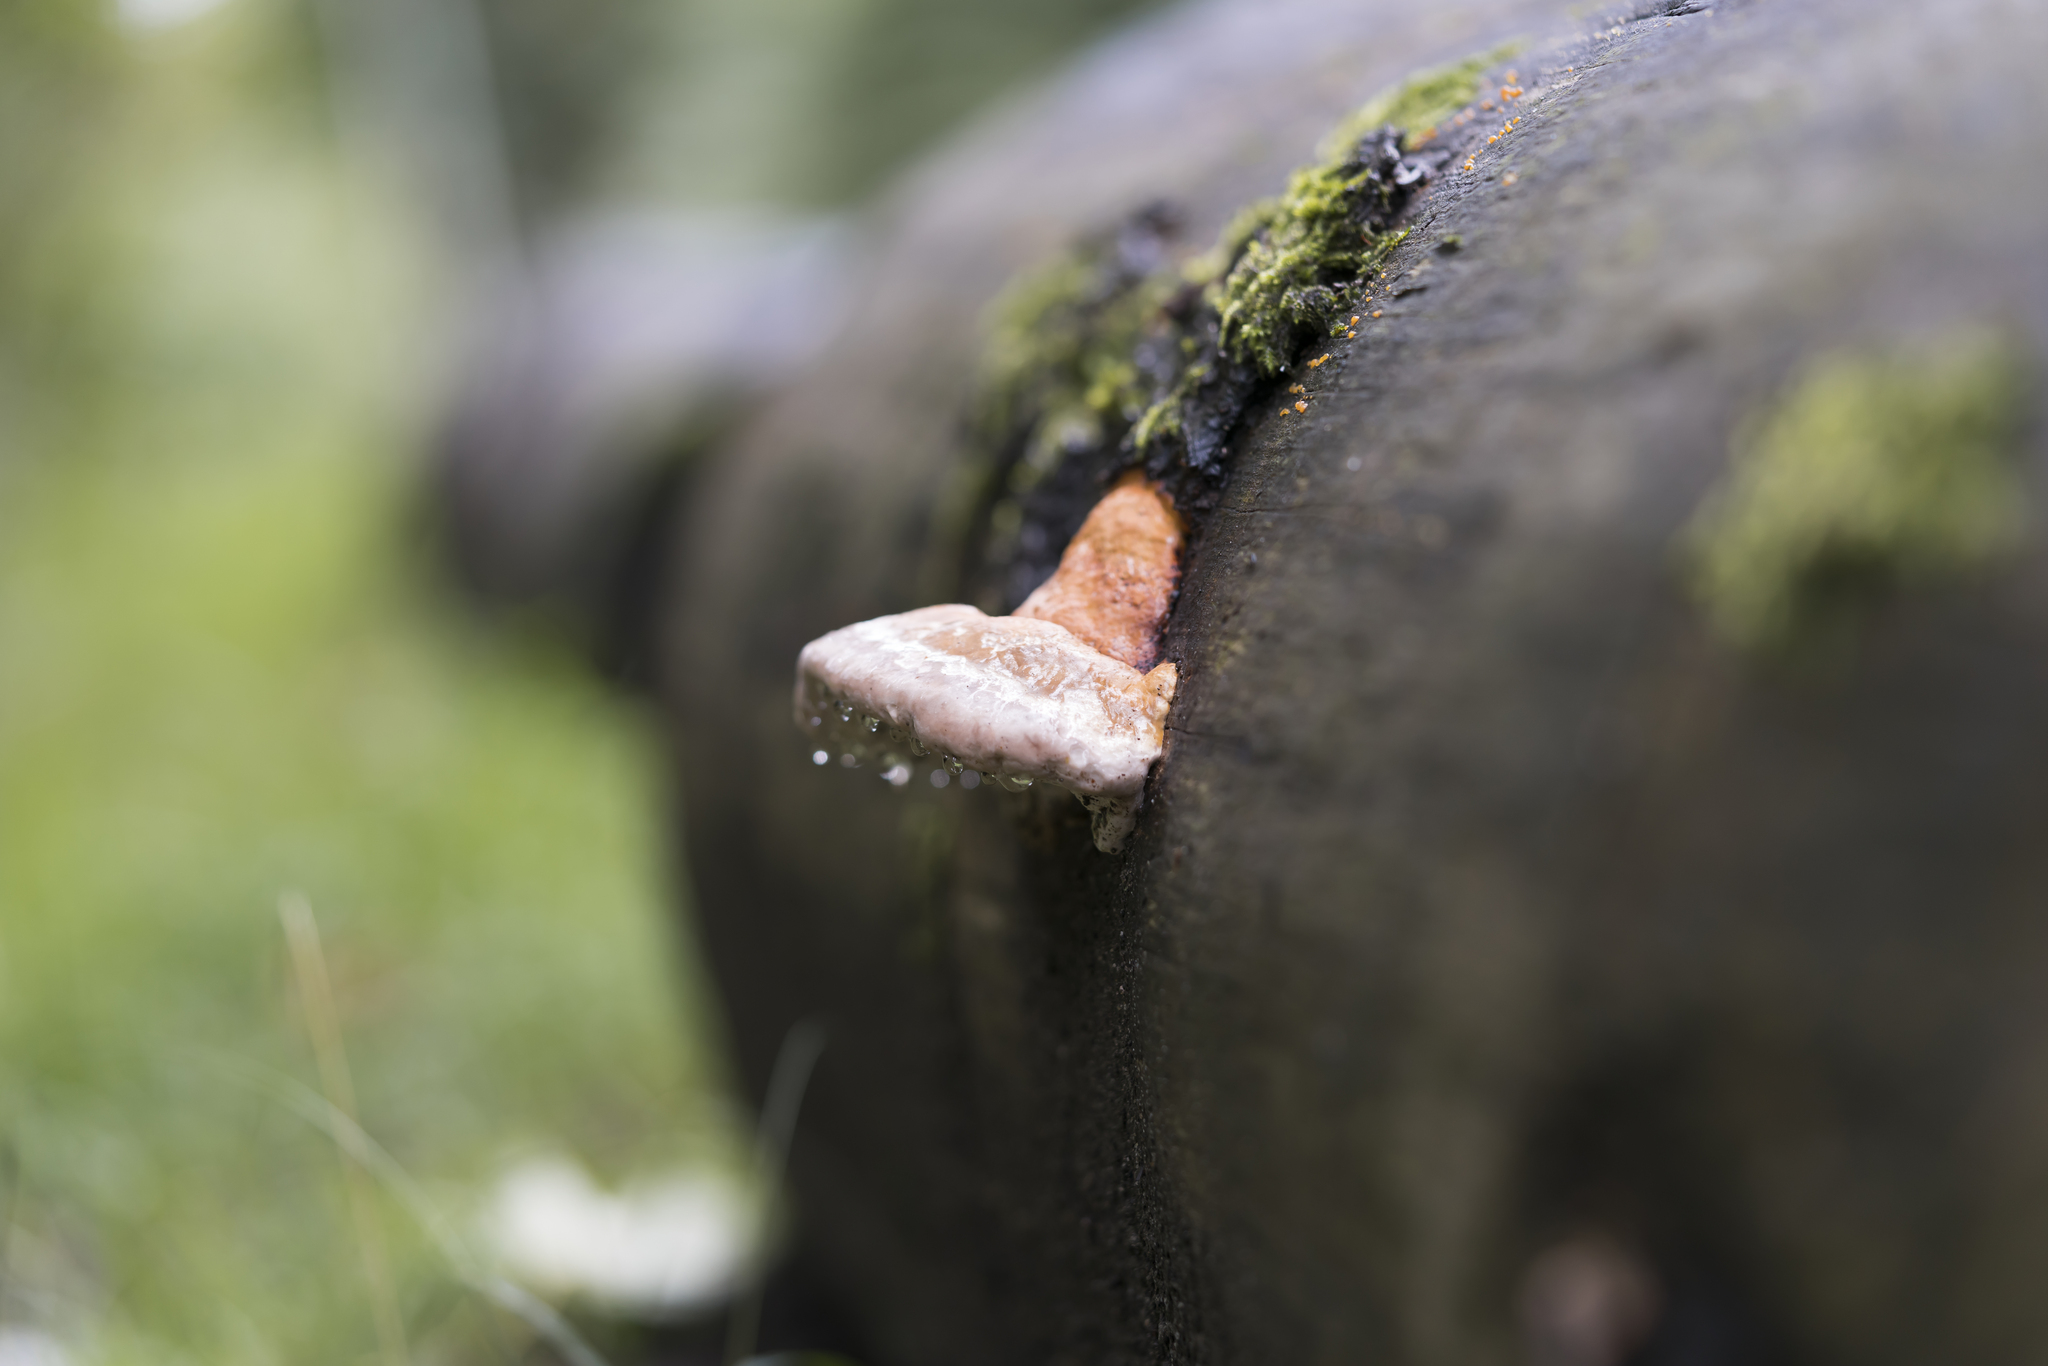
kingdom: Fungi
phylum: Basidiomycota
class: Agaricomycetes
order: Polyporales
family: Fomitopsidaceae
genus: Fomitopsis
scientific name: Fomitopsis pinicola
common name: Red-belted bracket
